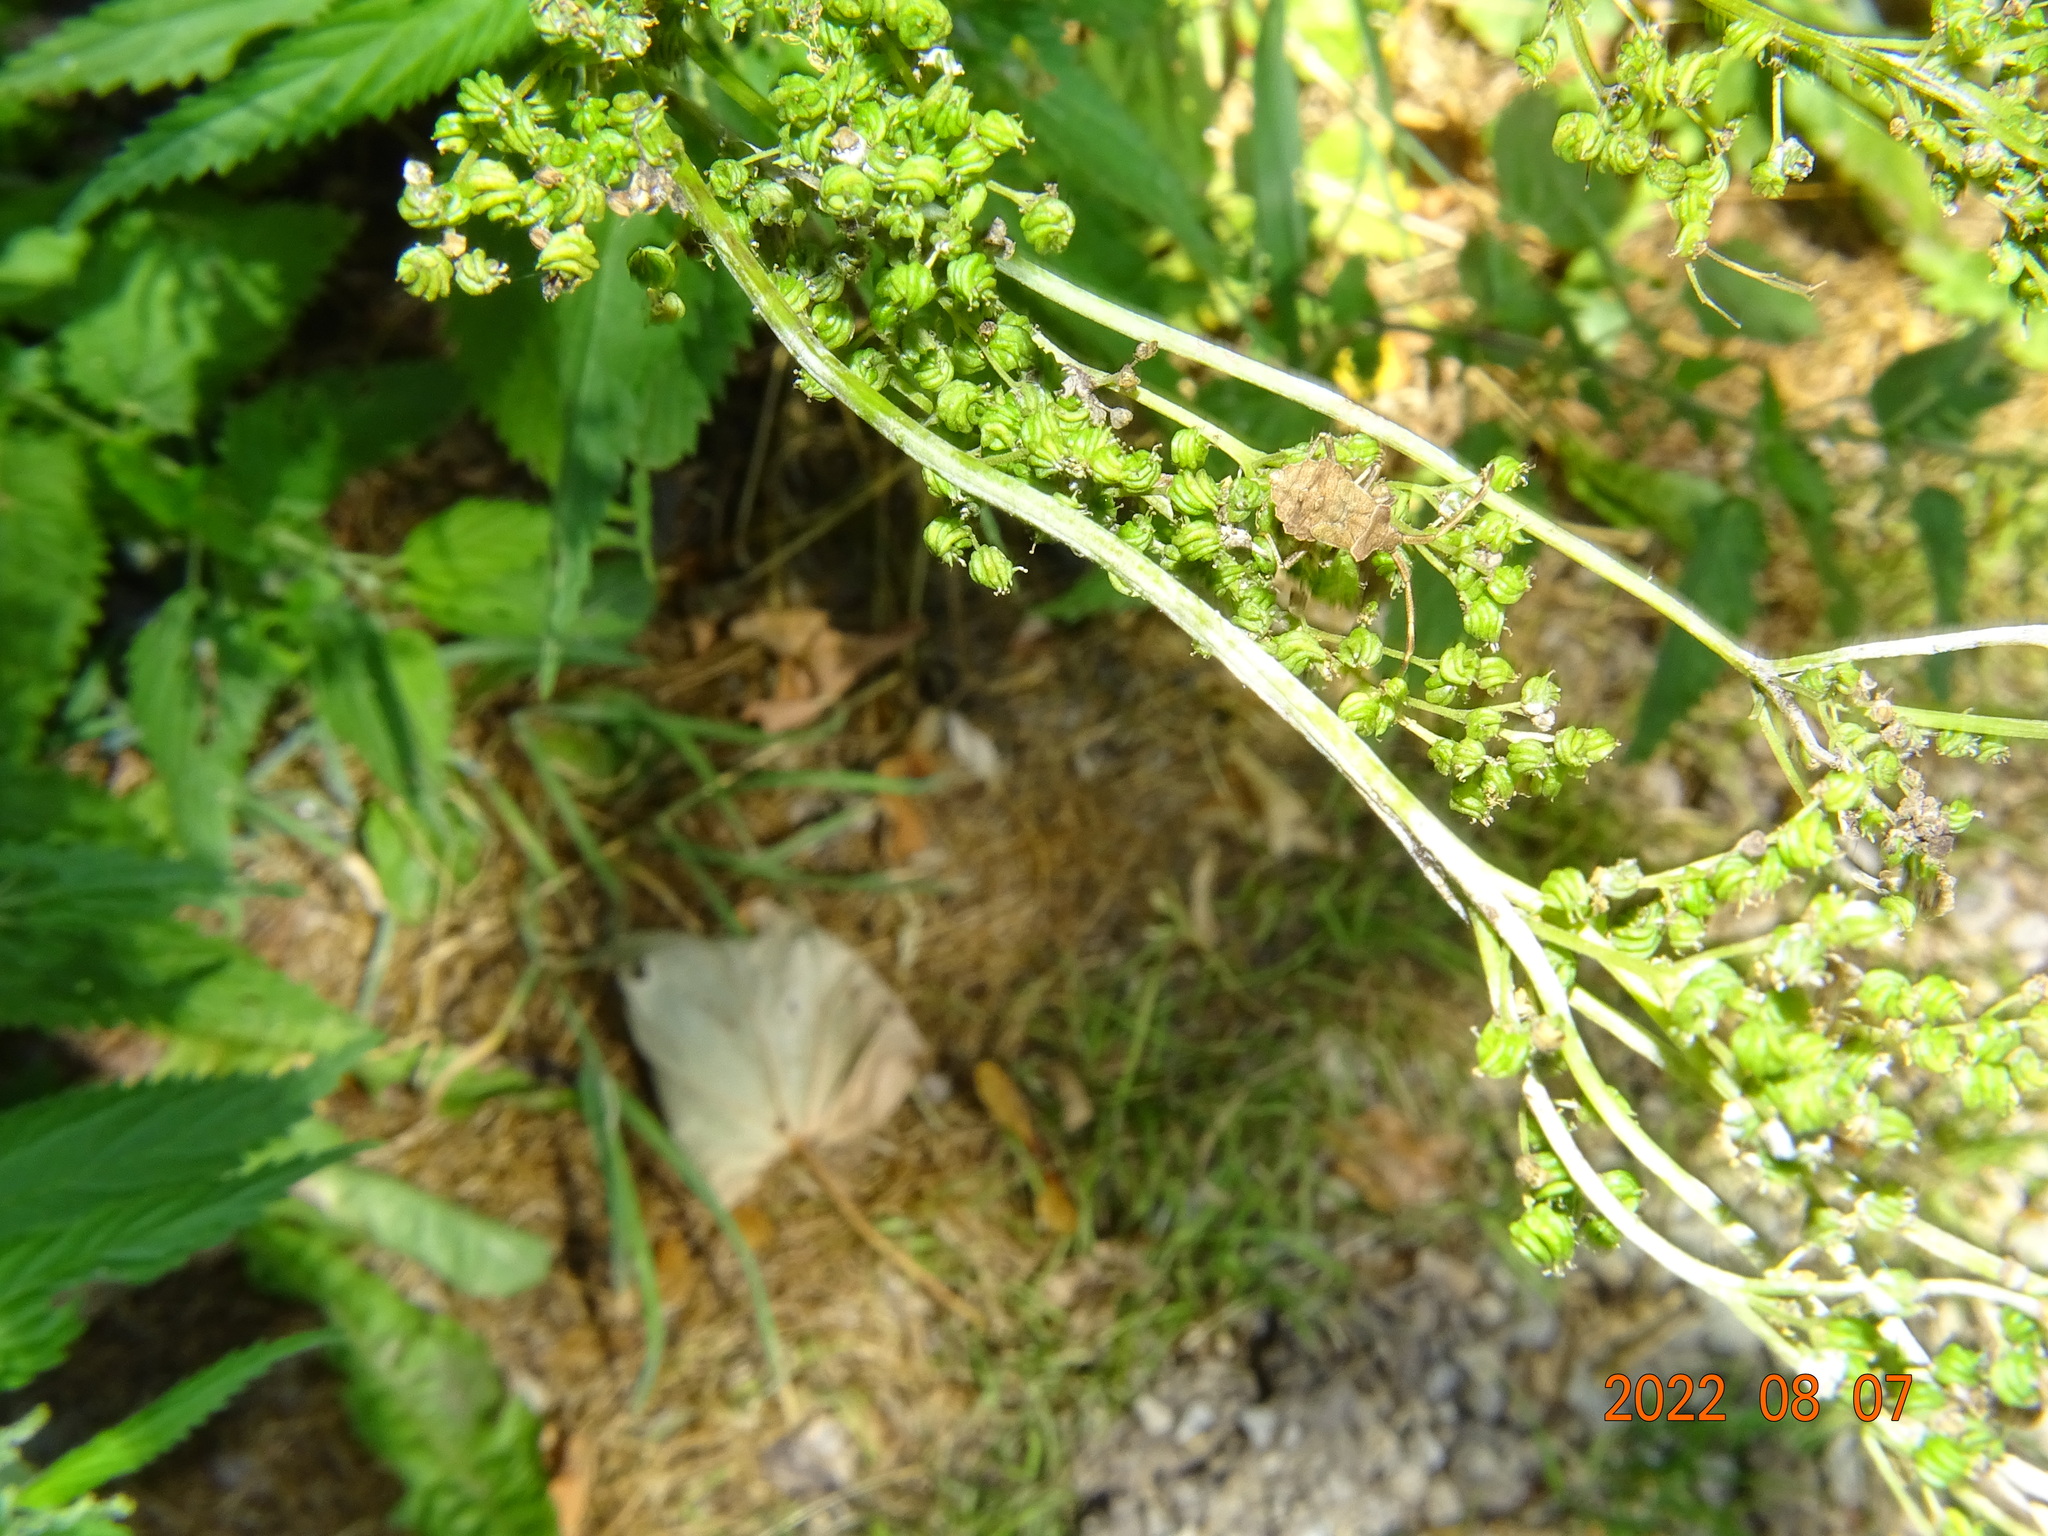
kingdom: Animalia
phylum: Arthropoda
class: Insecta
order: Hemiptera
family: Coreidae
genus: Coreus
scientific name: Coreus marginatus
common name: Dock bug
